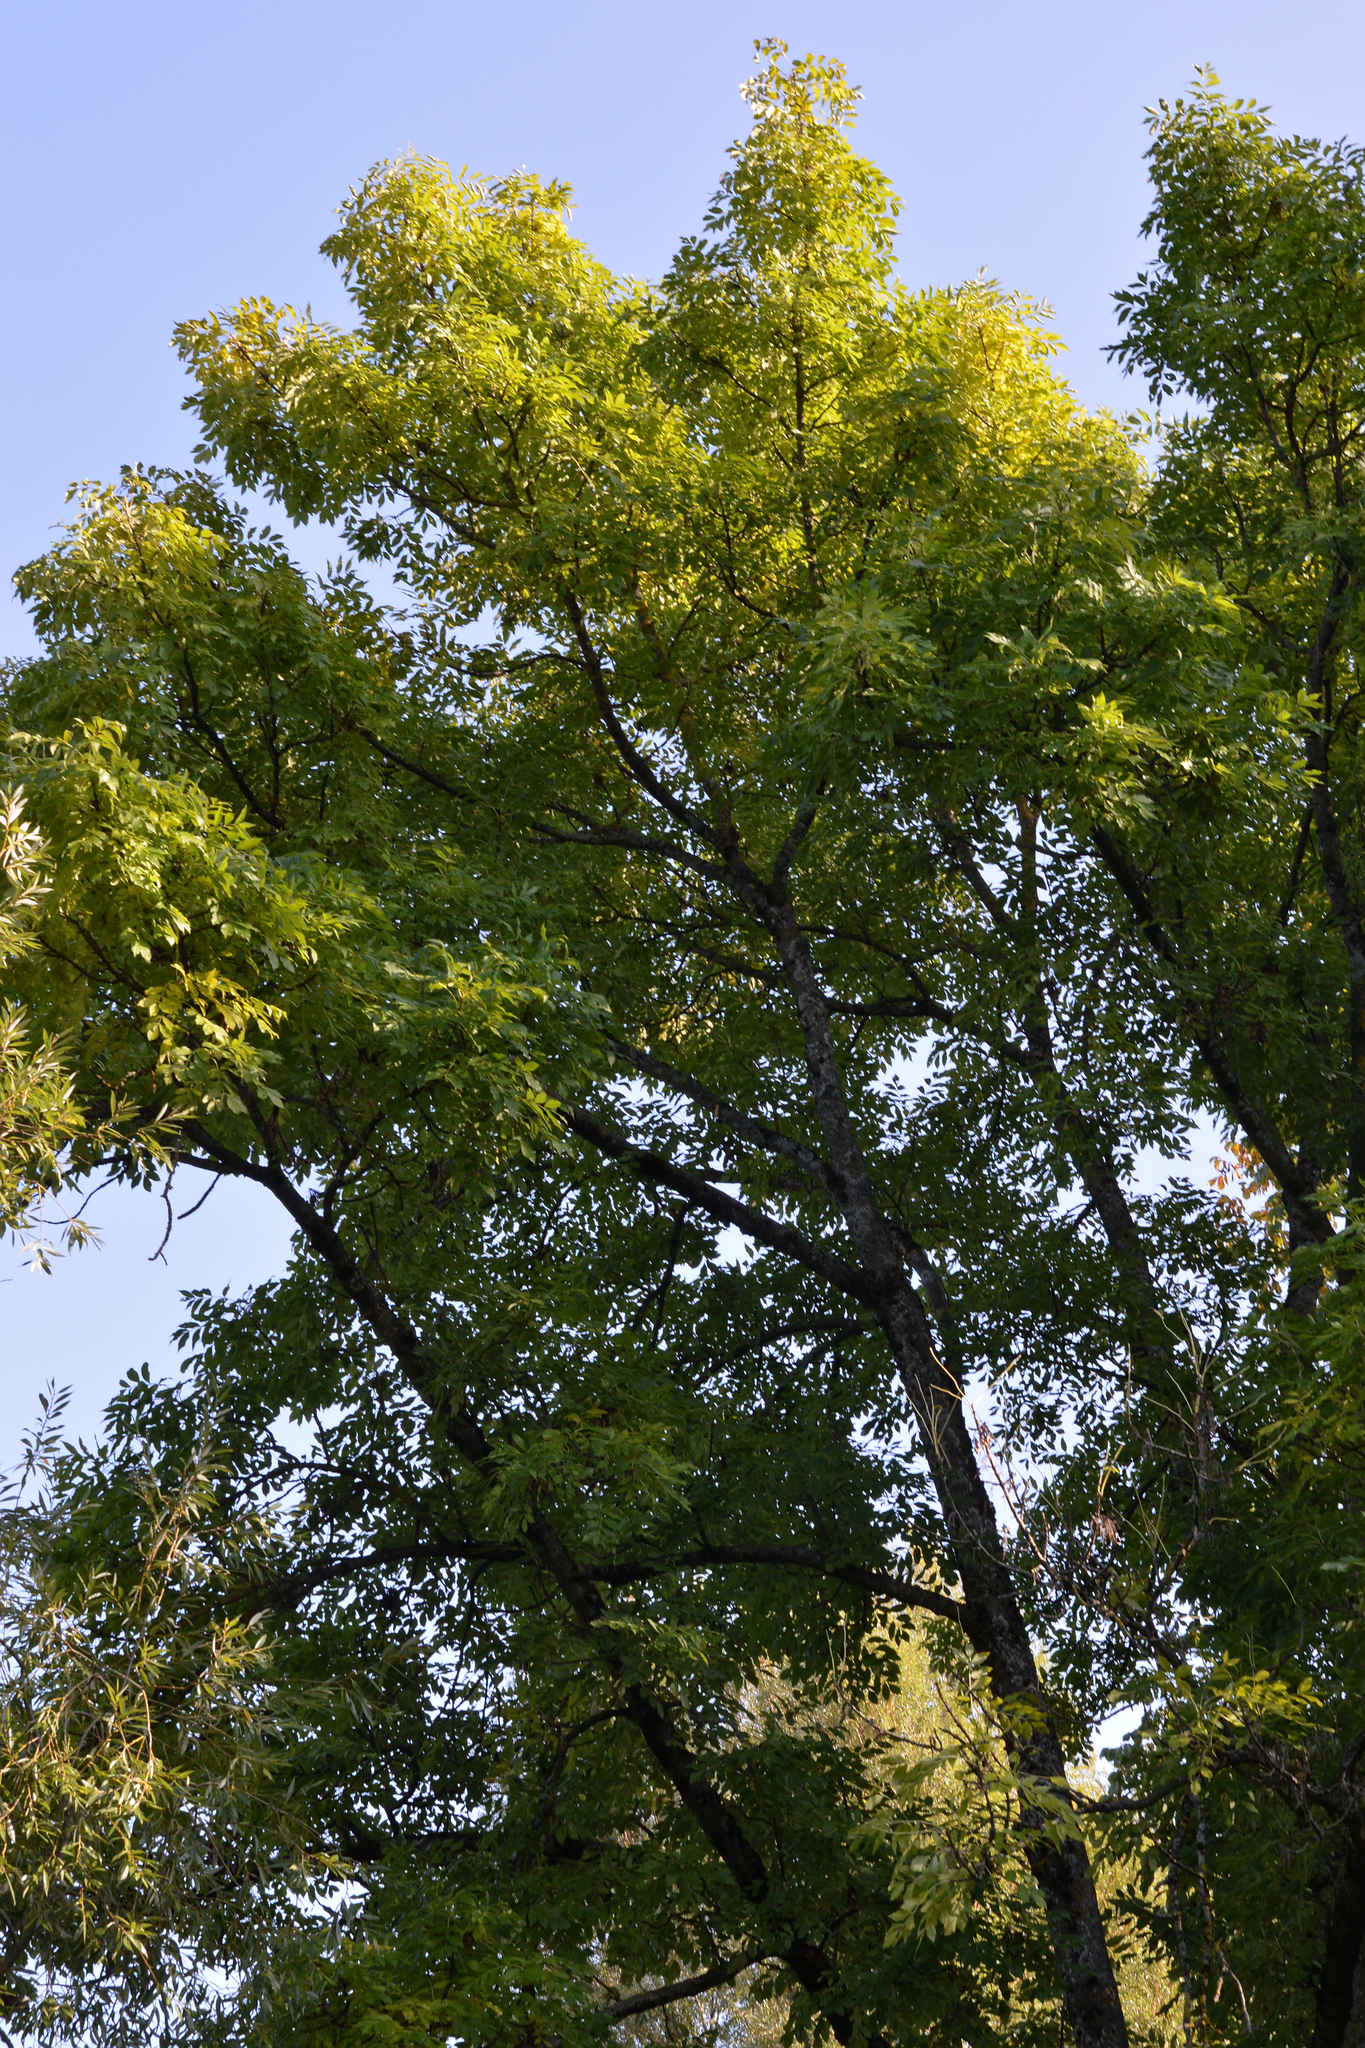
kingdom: Plantae
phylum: Tracheophyta
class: Magnoliopsida
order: Lamiales
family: Oleaceae
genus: Fraxinus
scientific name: Fraxinus excelsior
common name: European ash
